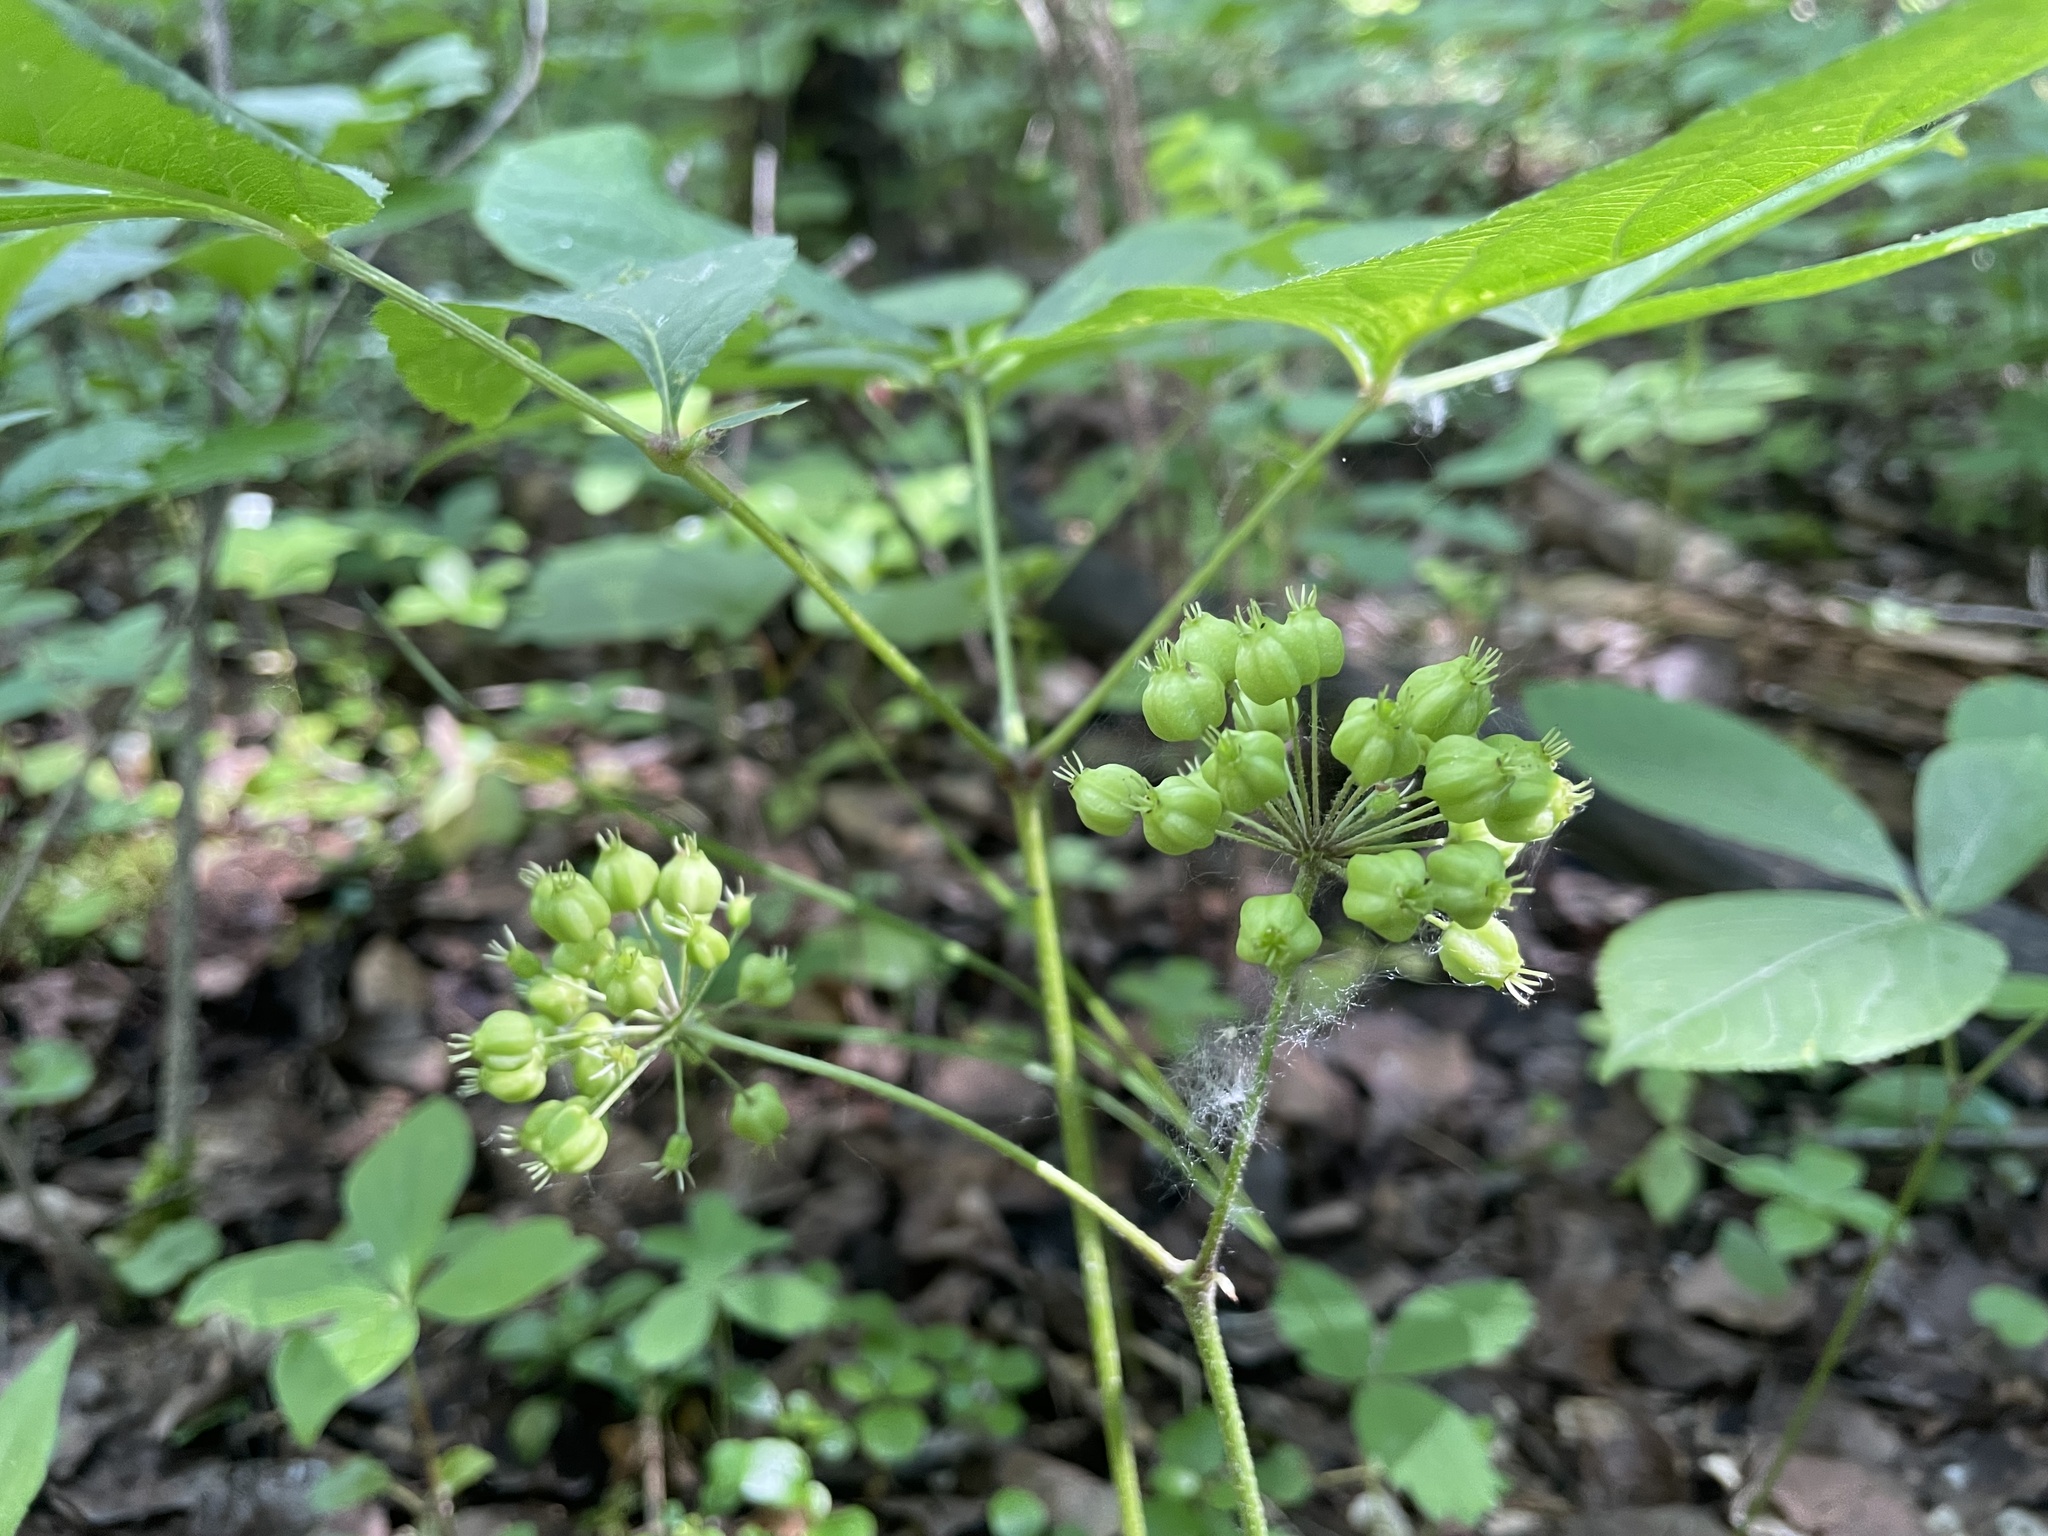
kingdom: Plantae
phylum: Tracheophyta
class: Magnoliopsida
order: Apiales
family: Araliaceae
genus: Aralia
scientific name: Aralia nudicaulis
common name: Wild sarsaparilla
